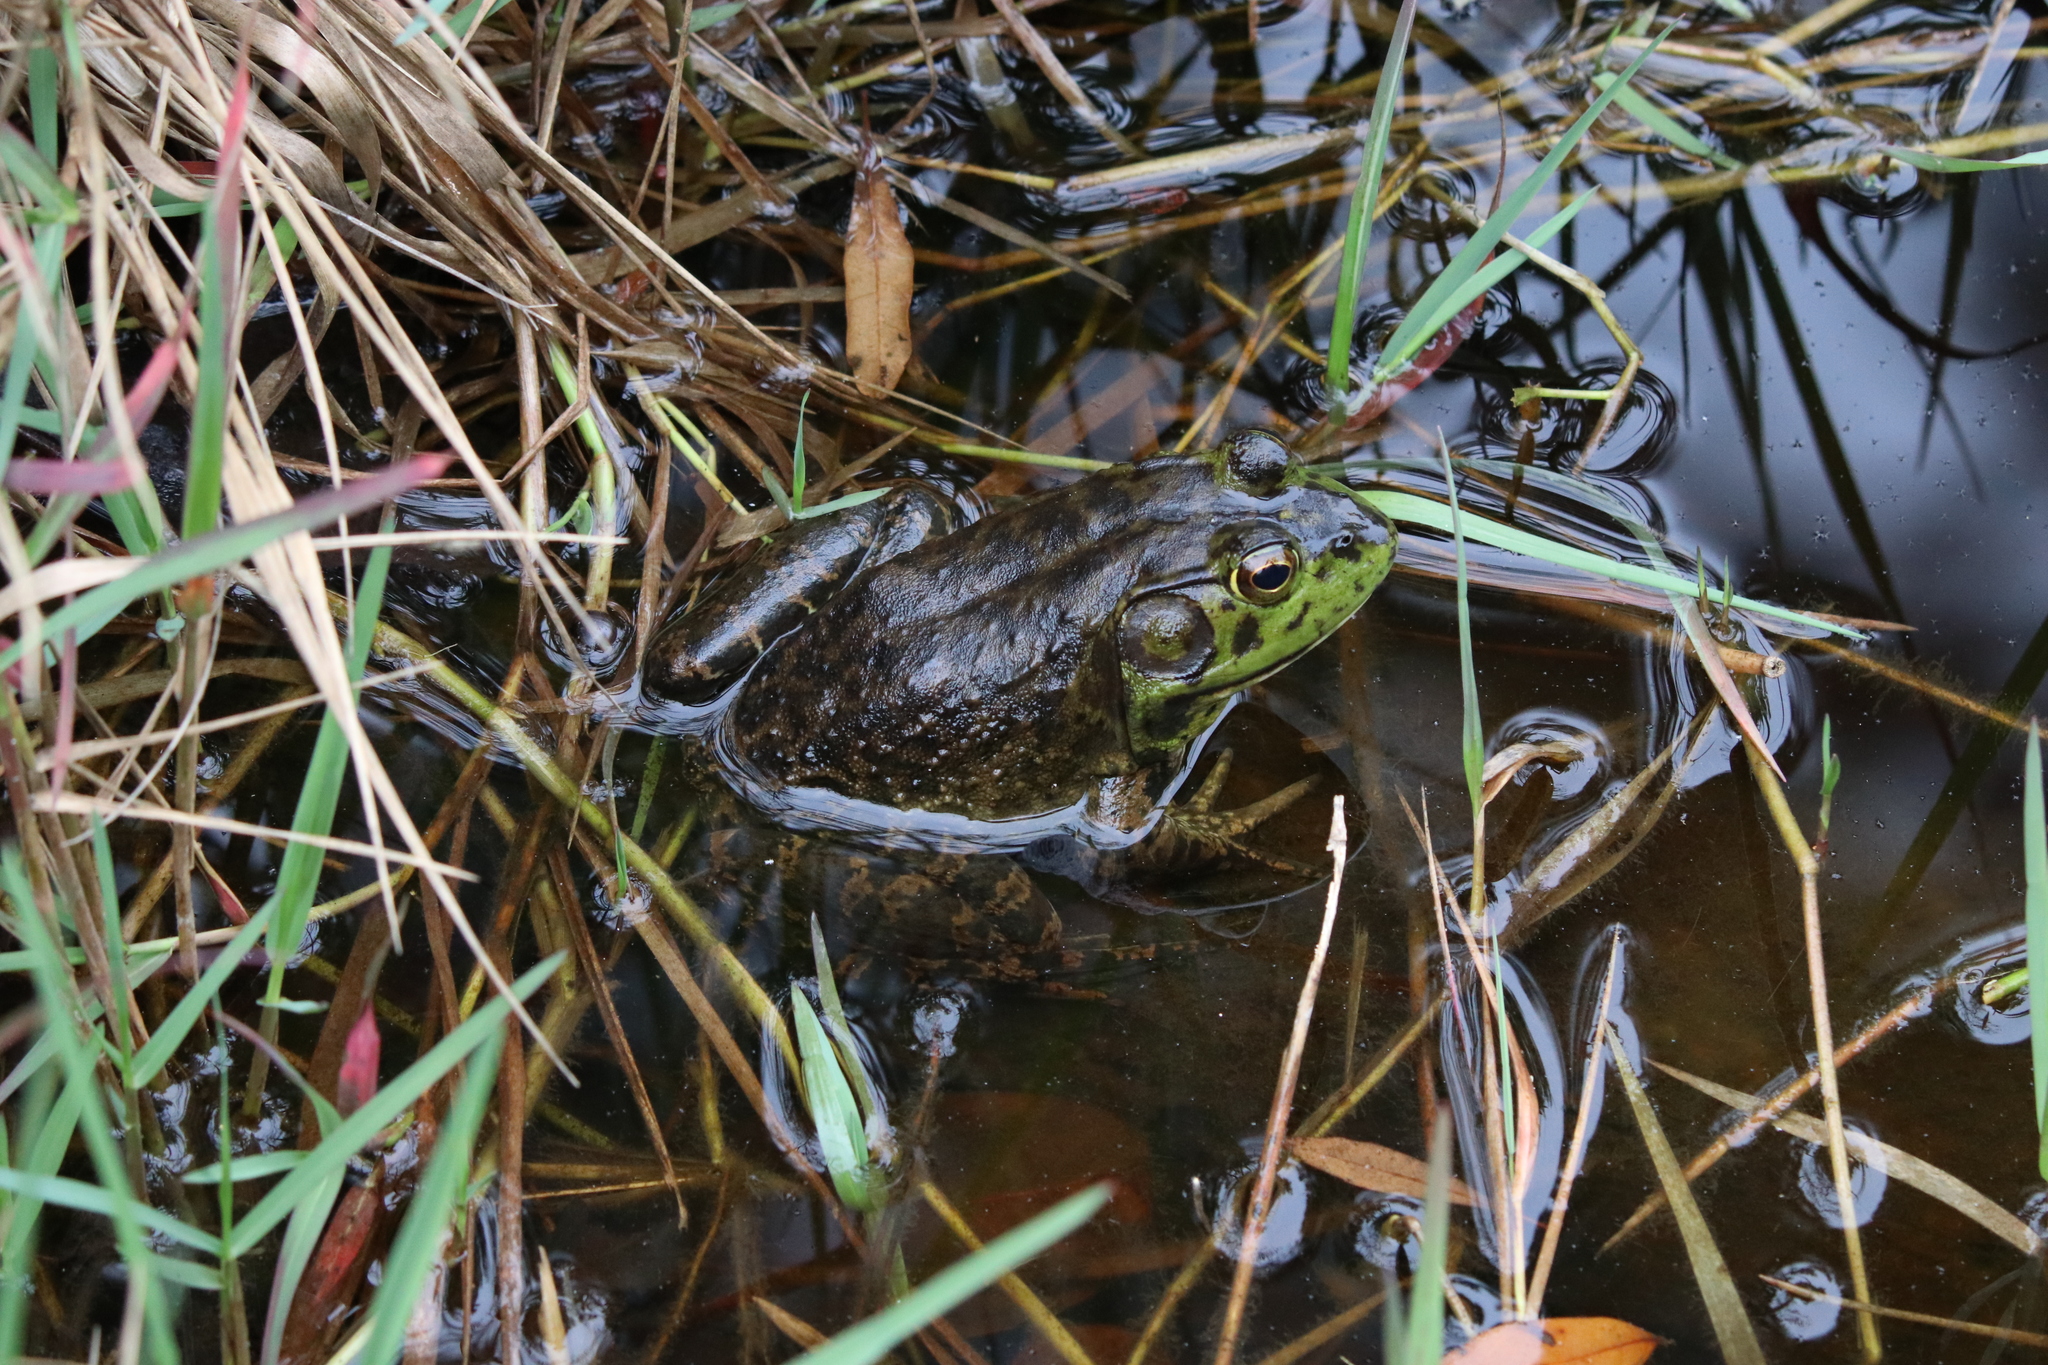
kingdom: Animalia
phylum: Chordata
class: Amphibia
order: Anura
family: Ranidae
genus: Lithobates
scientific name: Lithobates catesbeianus
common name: American bullfrog
